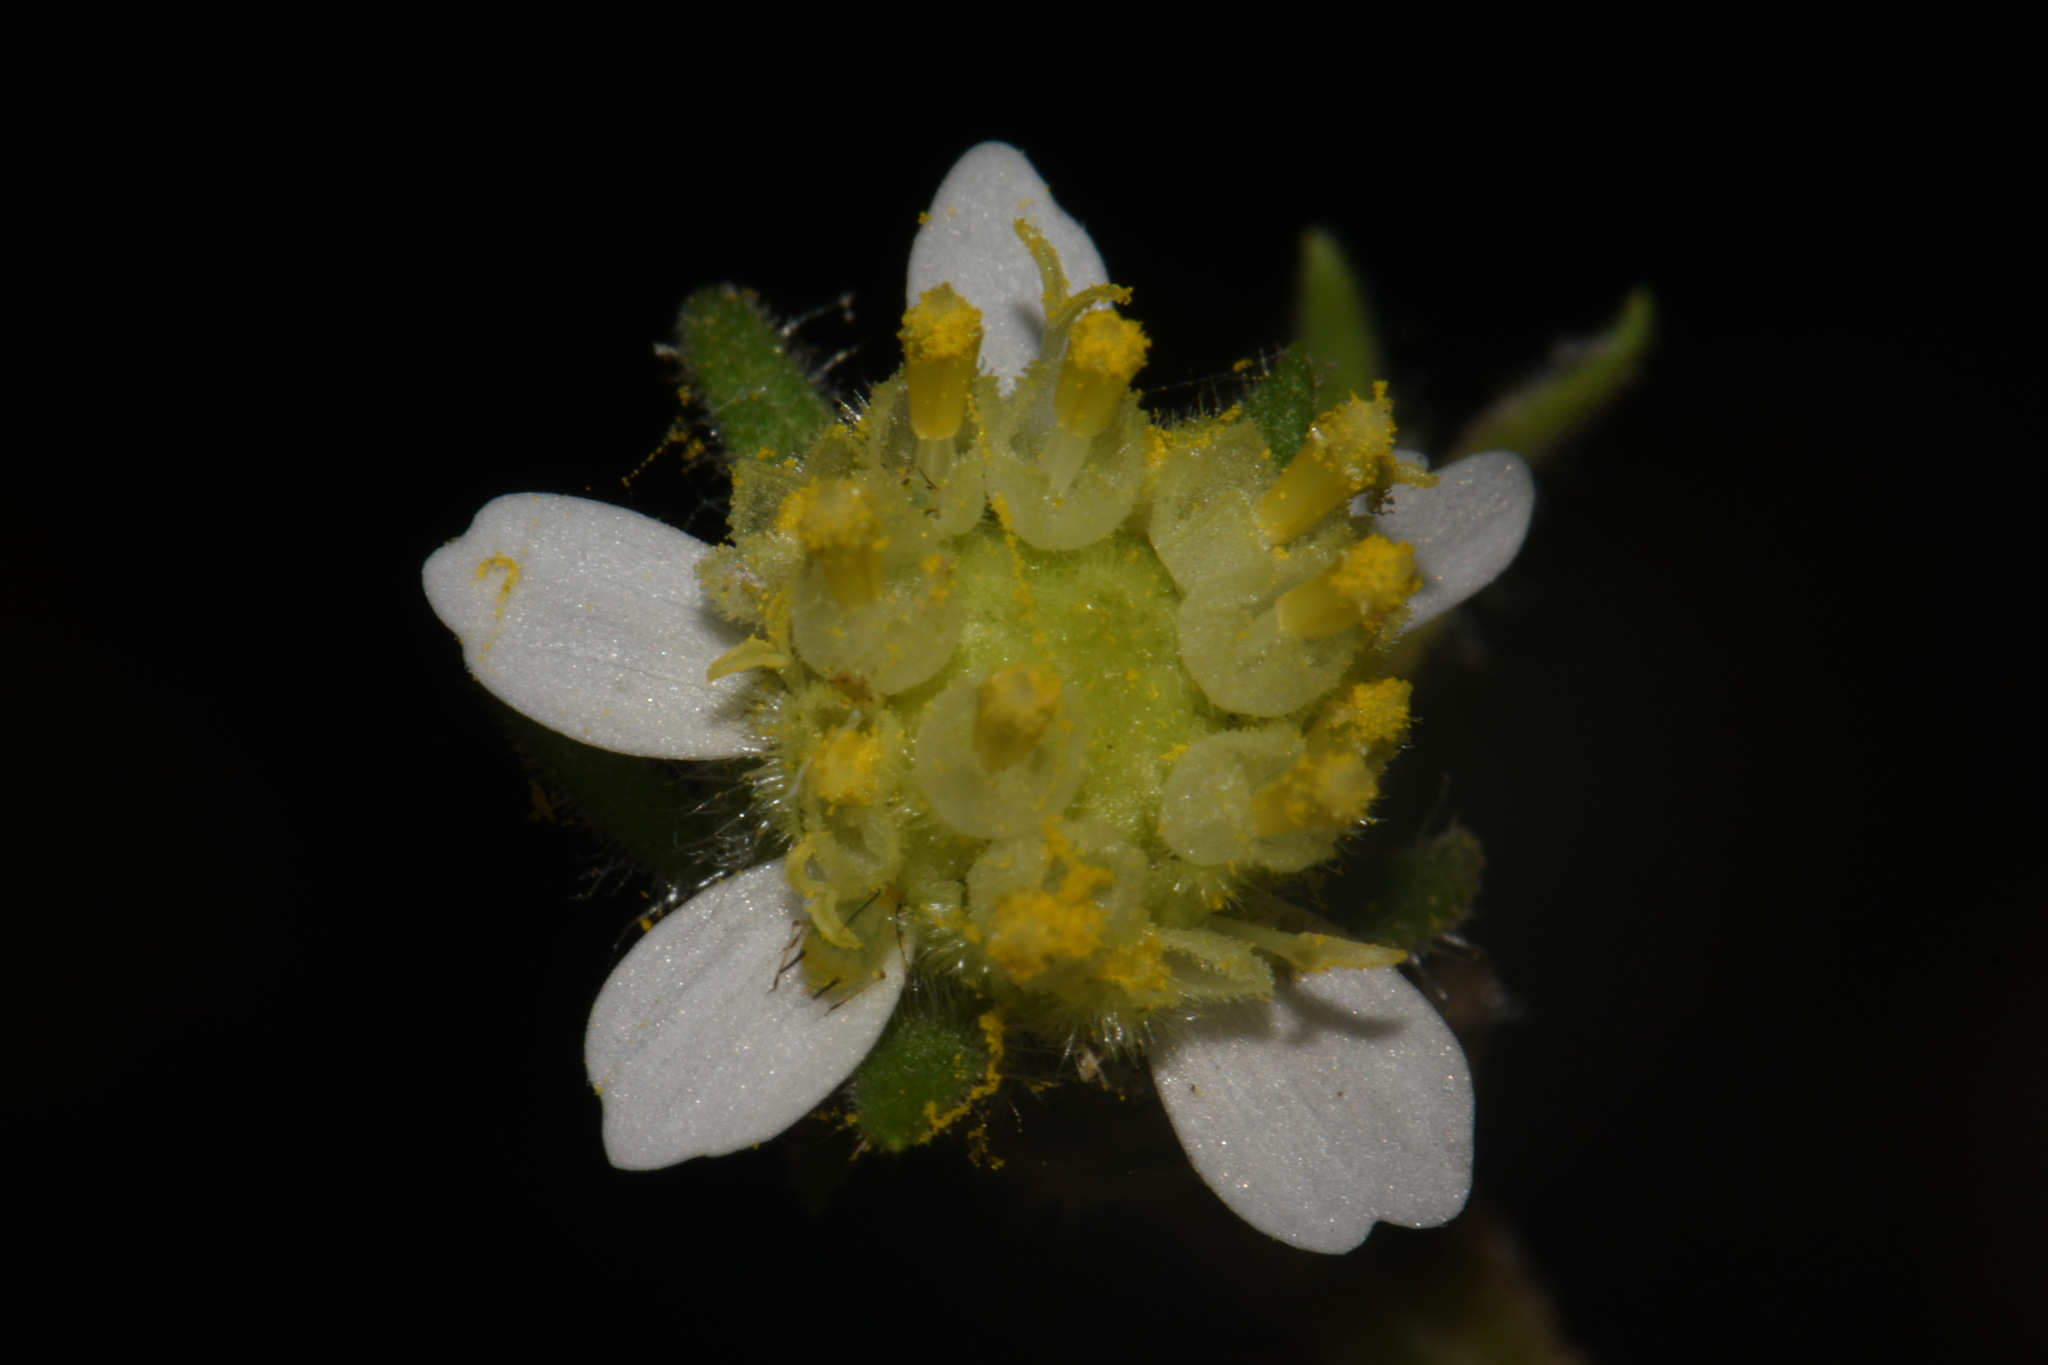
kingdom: Plantae
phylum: Tracheophyta
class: Magnoliopsida
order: Asterales
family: Asteraceae
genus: Polymnia
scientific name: Polymnia canadensis
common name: Pale-flowered leafcup
